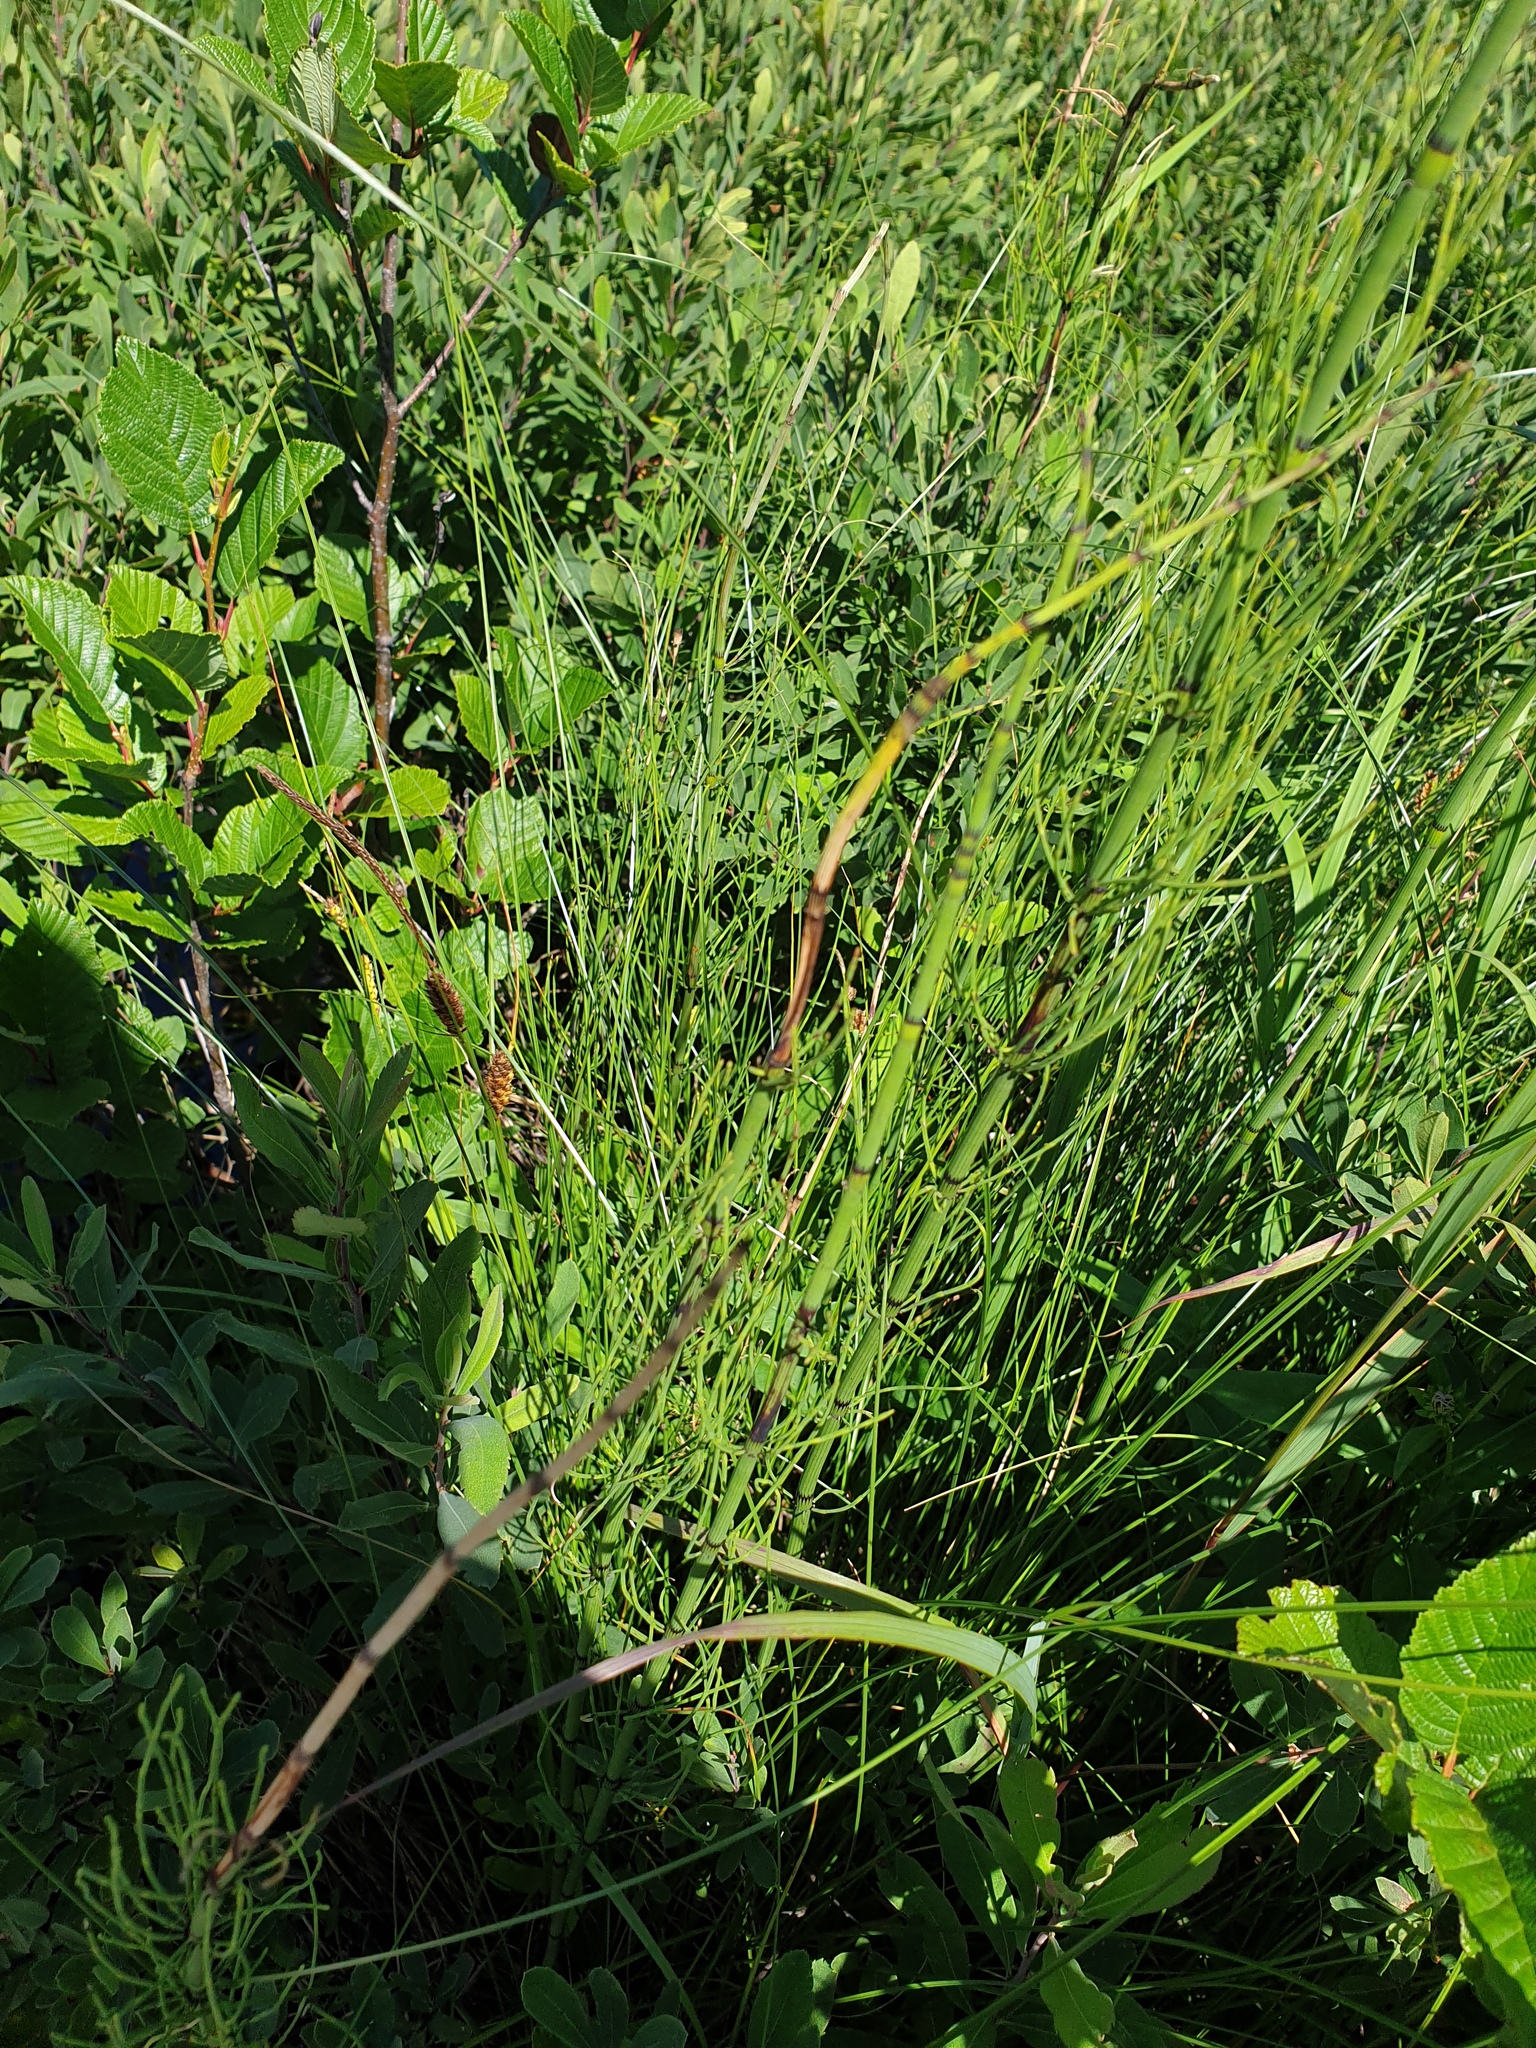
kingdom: Plantae
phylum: Tracheophyta
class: Polypodiopsida
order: Equisetales
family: Equisetaceae
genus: Equisetum
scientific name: Equisetum hyemale
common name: Rough horsetail
